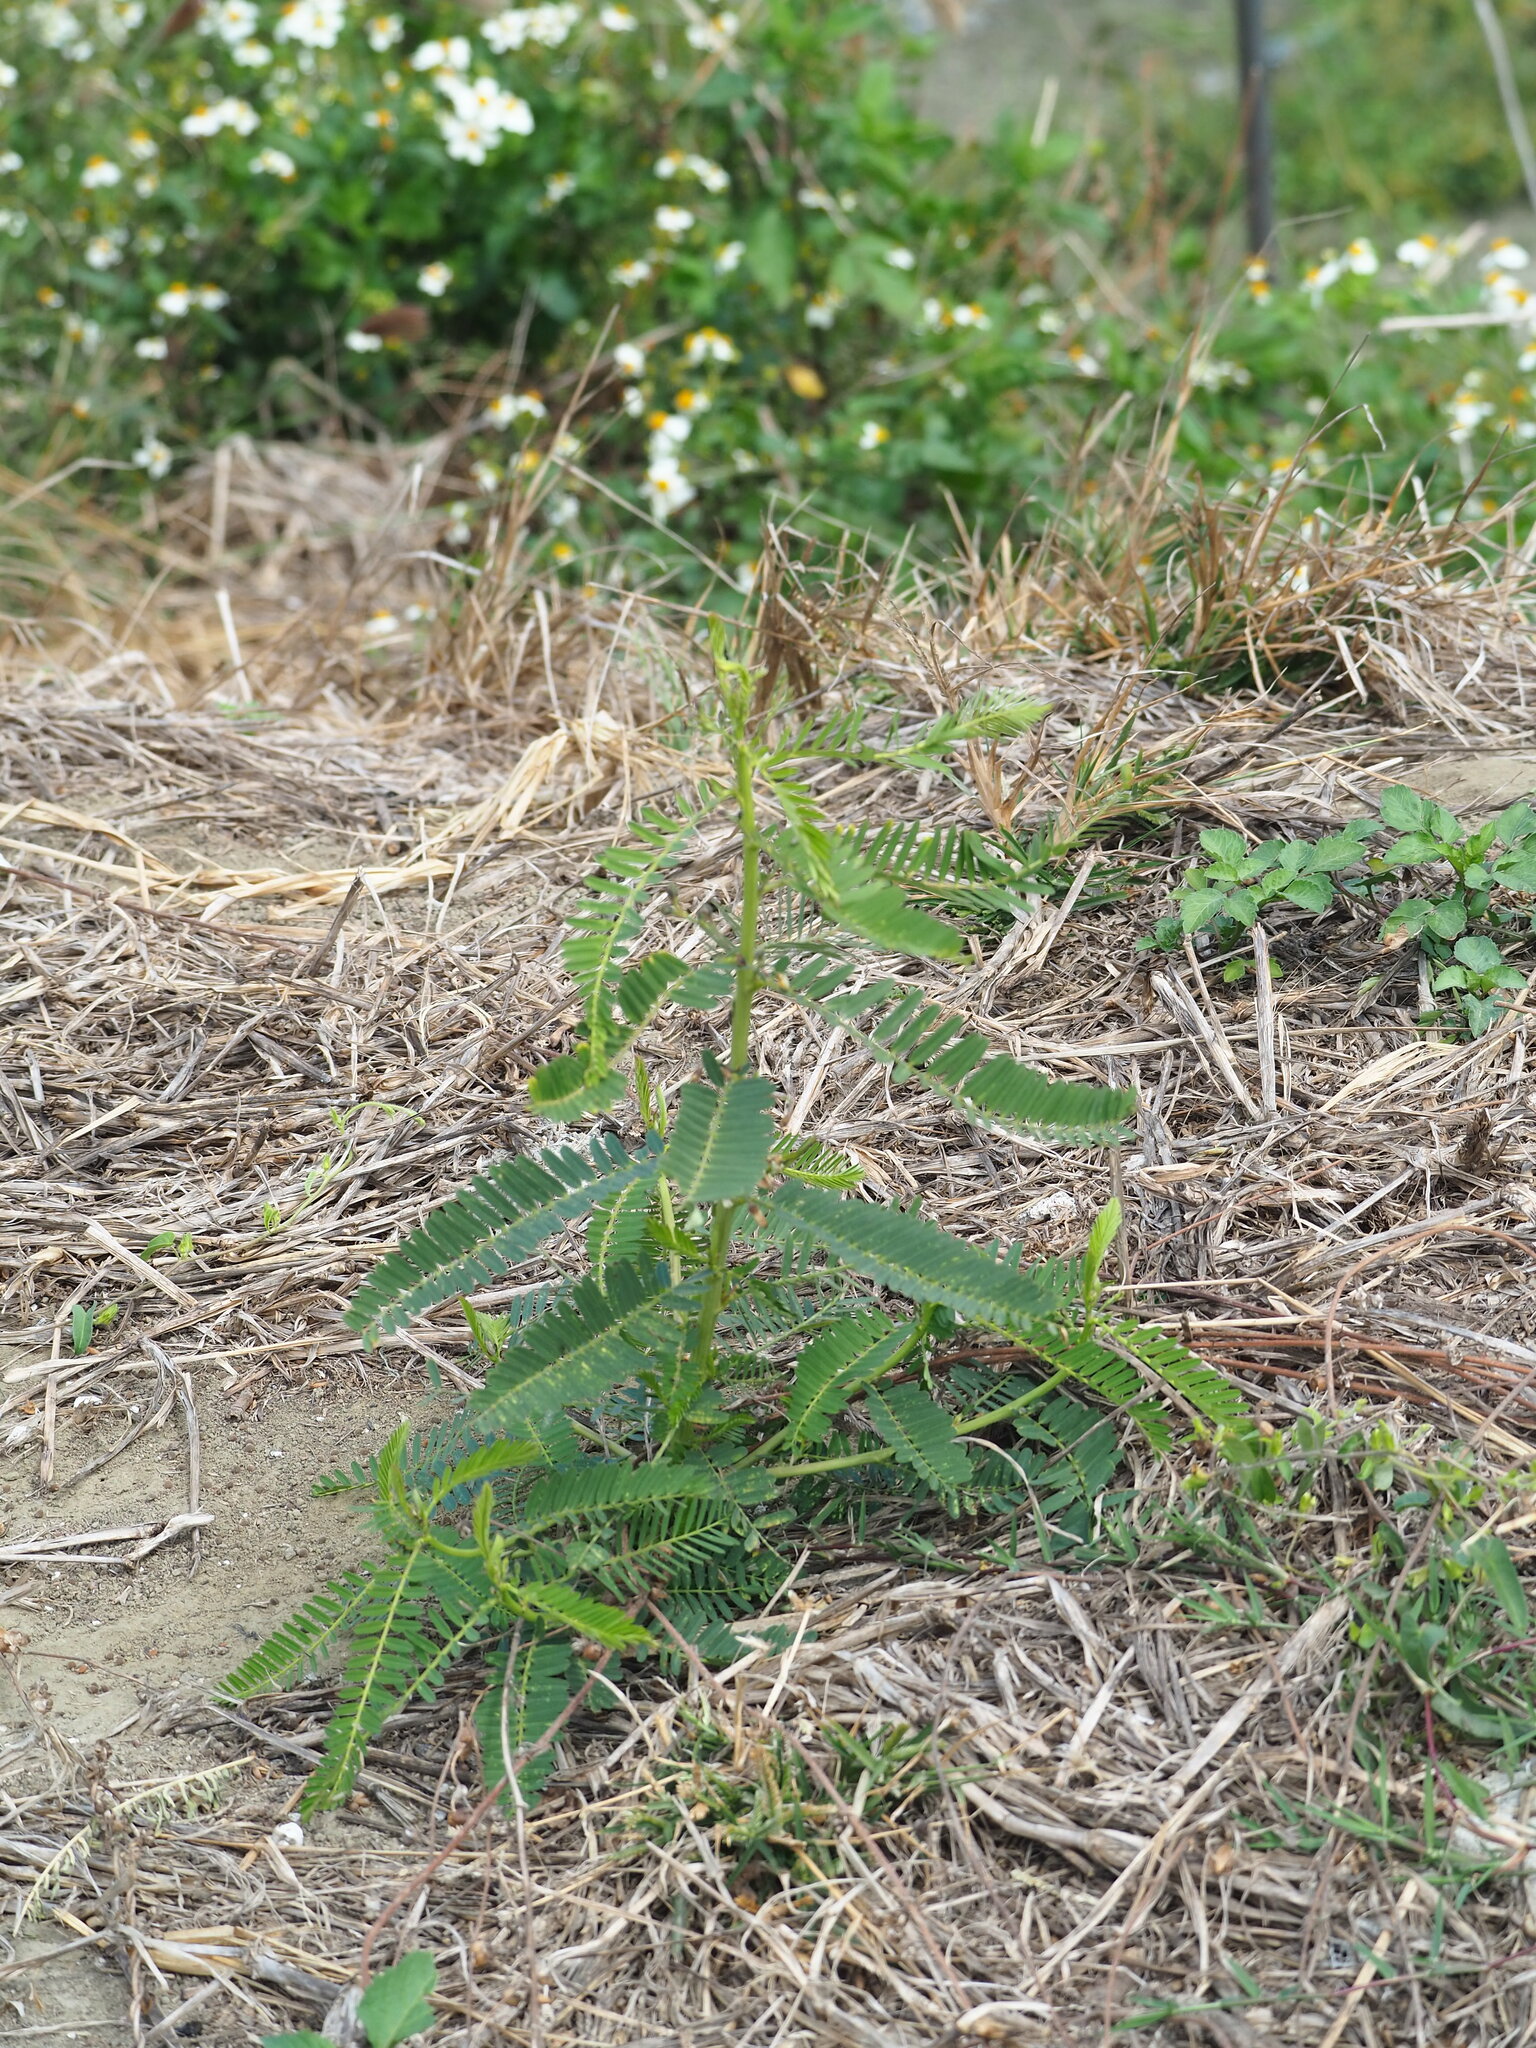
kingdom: Plantae
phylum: Tracheophyta
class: Magnoliopsida
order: Fabales
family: Fabaceae
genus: Sesbania
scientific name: Sesbania cannabina
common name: Canicha
